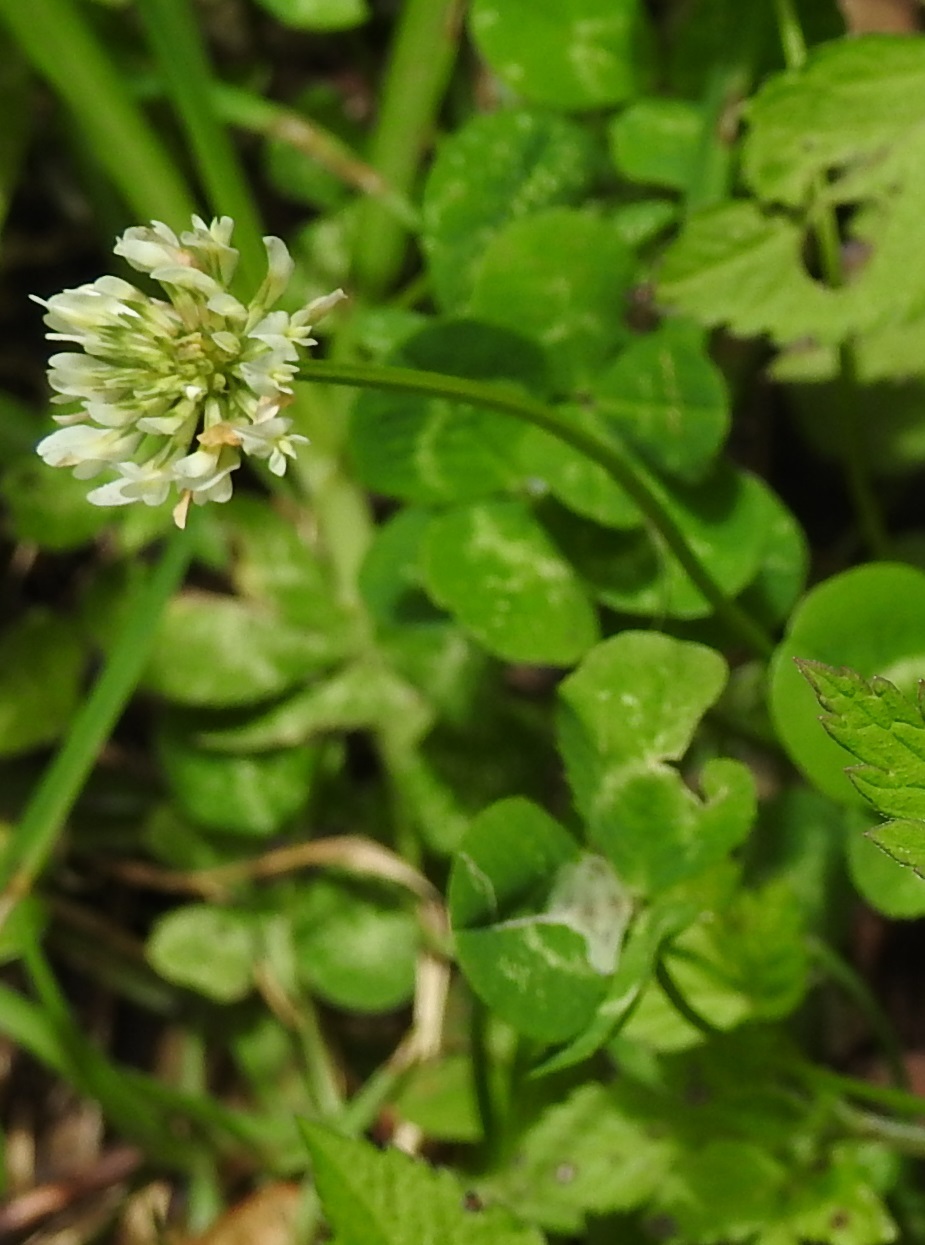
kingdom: Plantae
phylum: Tracheophyta
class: Magnoliopsida
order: Fabales
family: Fabaceae
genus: Trifolium
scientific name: Trifolium repens
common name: White clover
